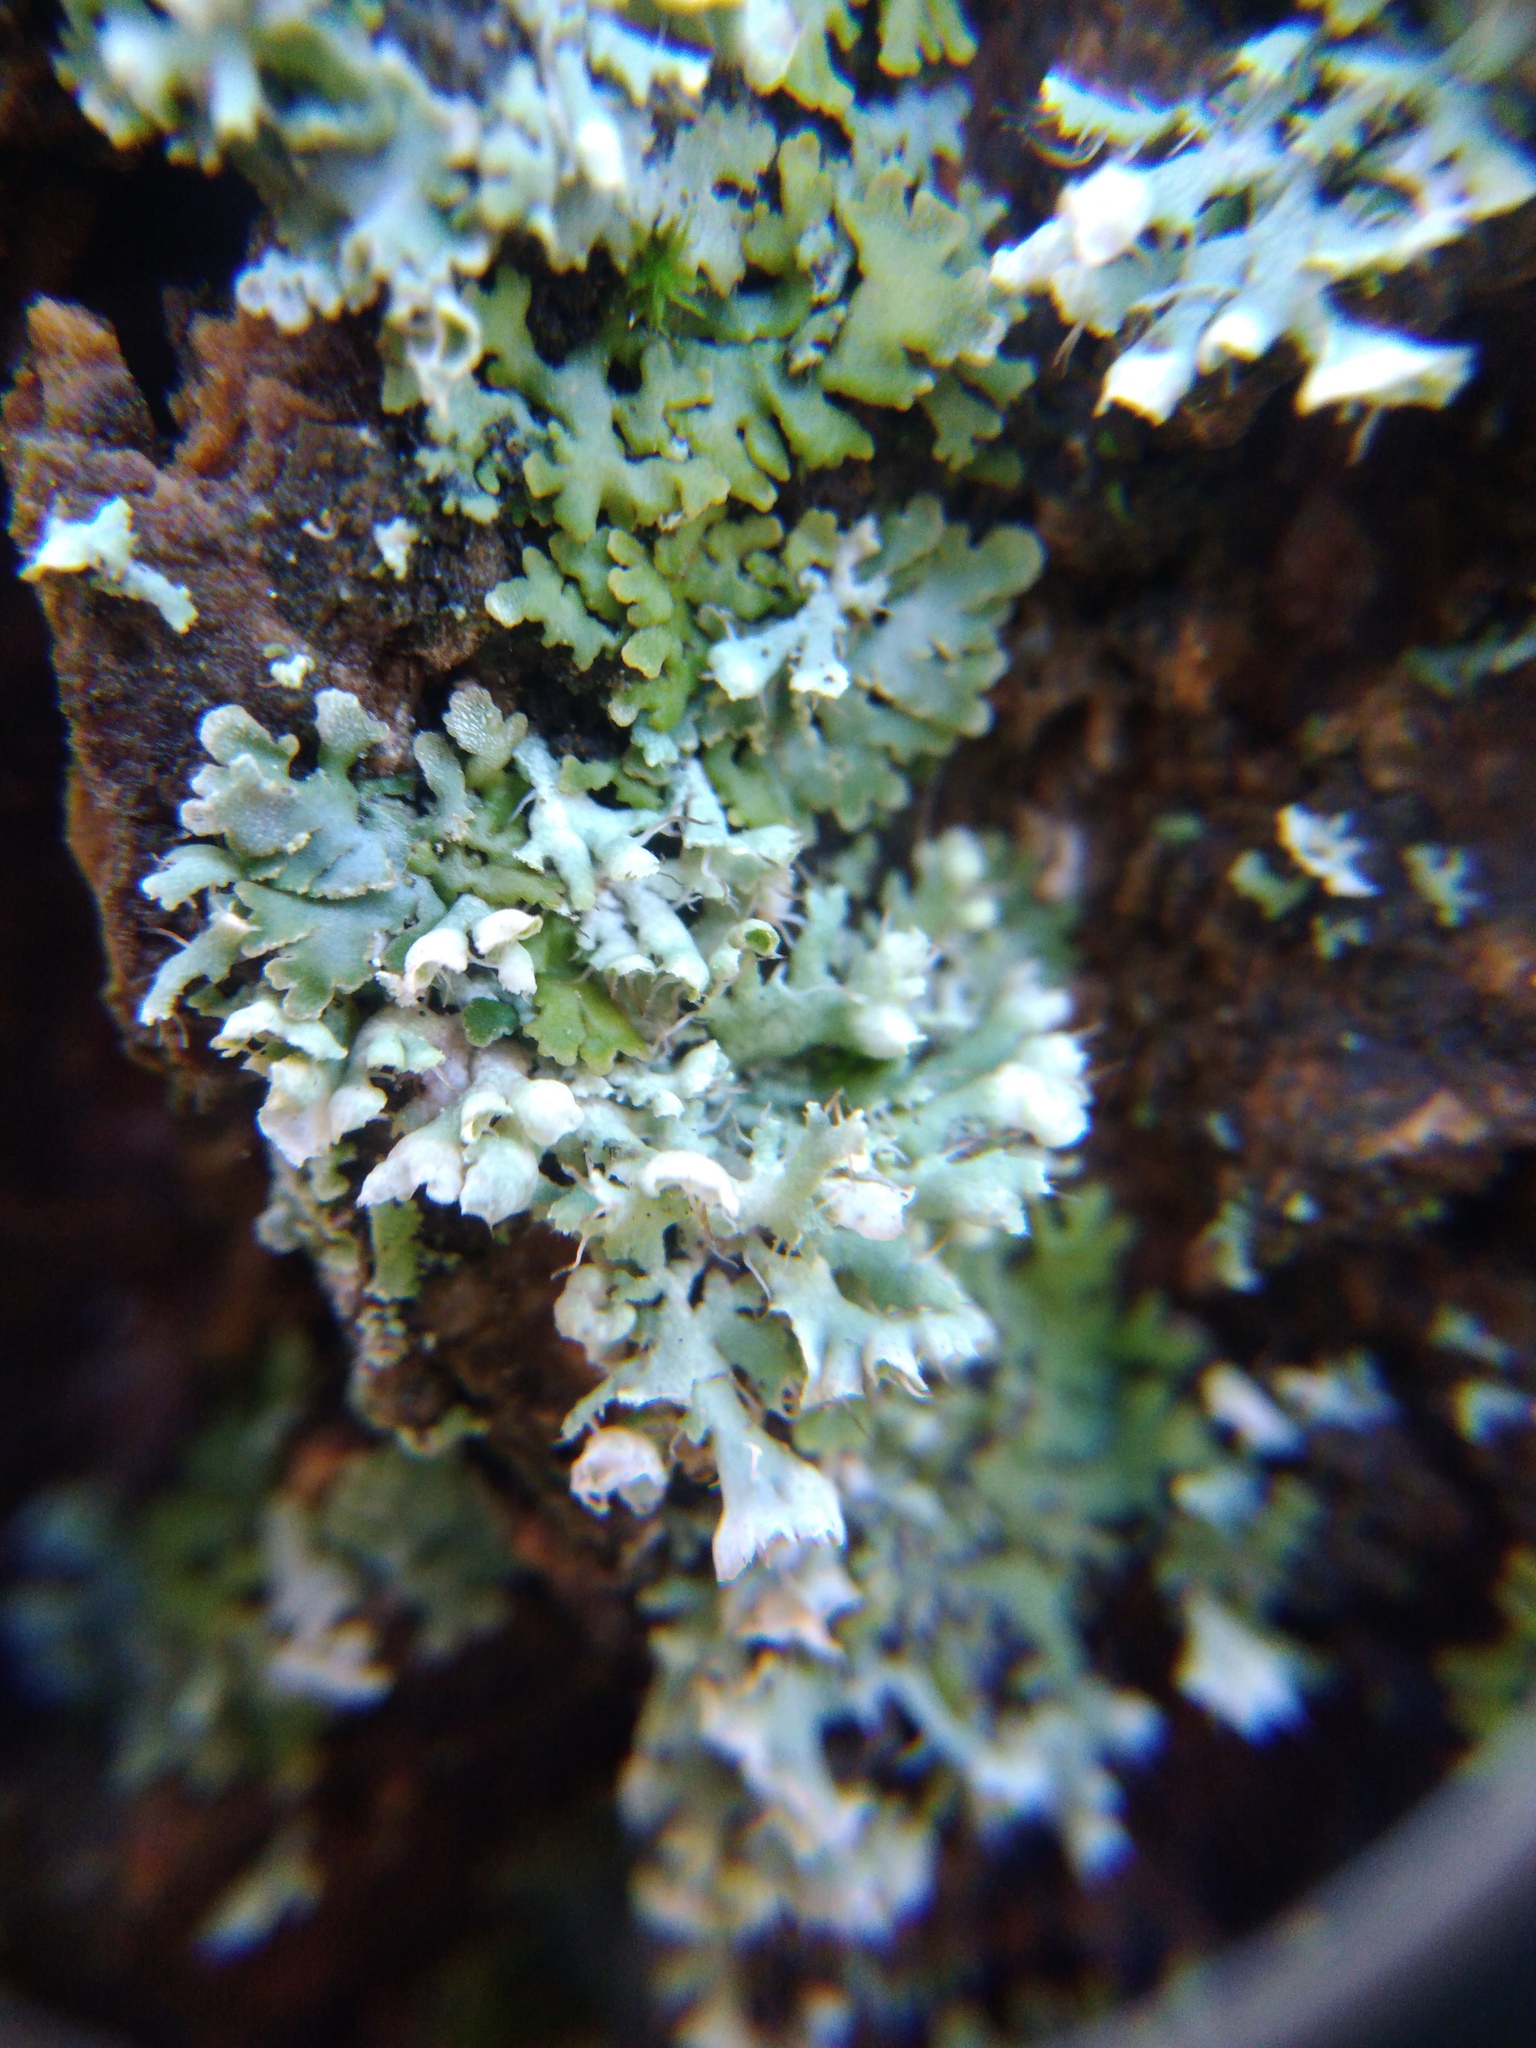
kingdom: Fungi
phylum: Ascomycota
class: Lecanoromycetes
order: Caliciales
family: Physciaceae
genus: Physcia
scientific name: Physcia adscendens
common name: Hooded rosette lichen
